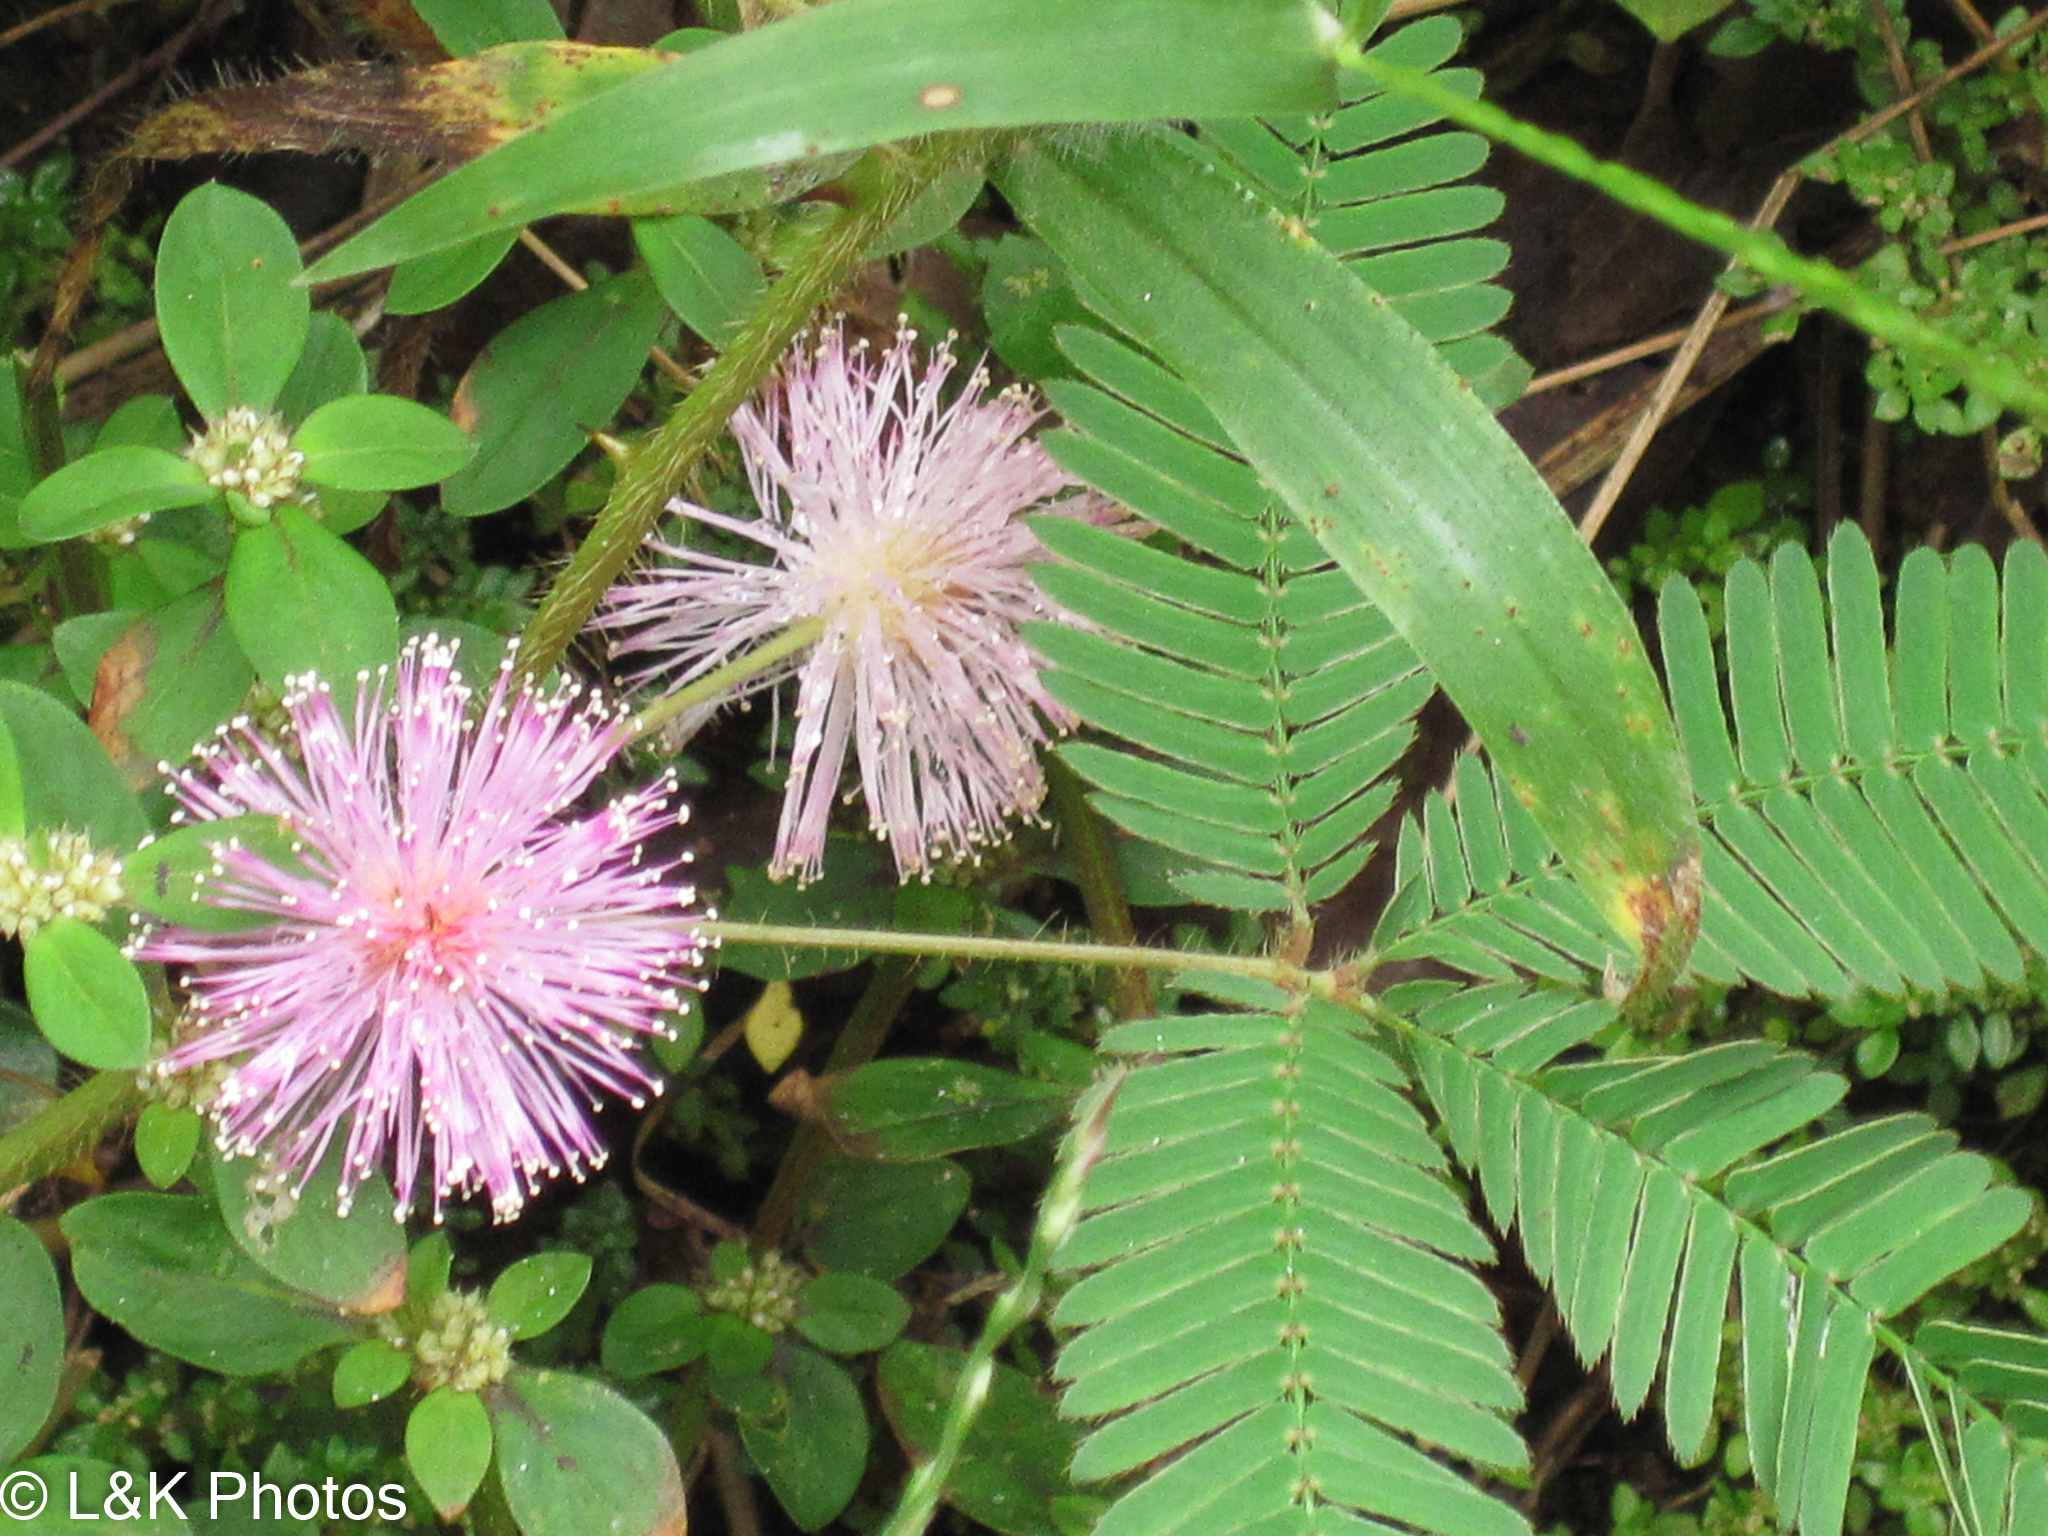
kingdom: Plantae
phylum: Tracheophyta
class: Magnoliopsida
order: Fabales
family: Fabaceae
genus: Mimosa
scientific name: Mimosa pudica
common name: Sensitive plant
